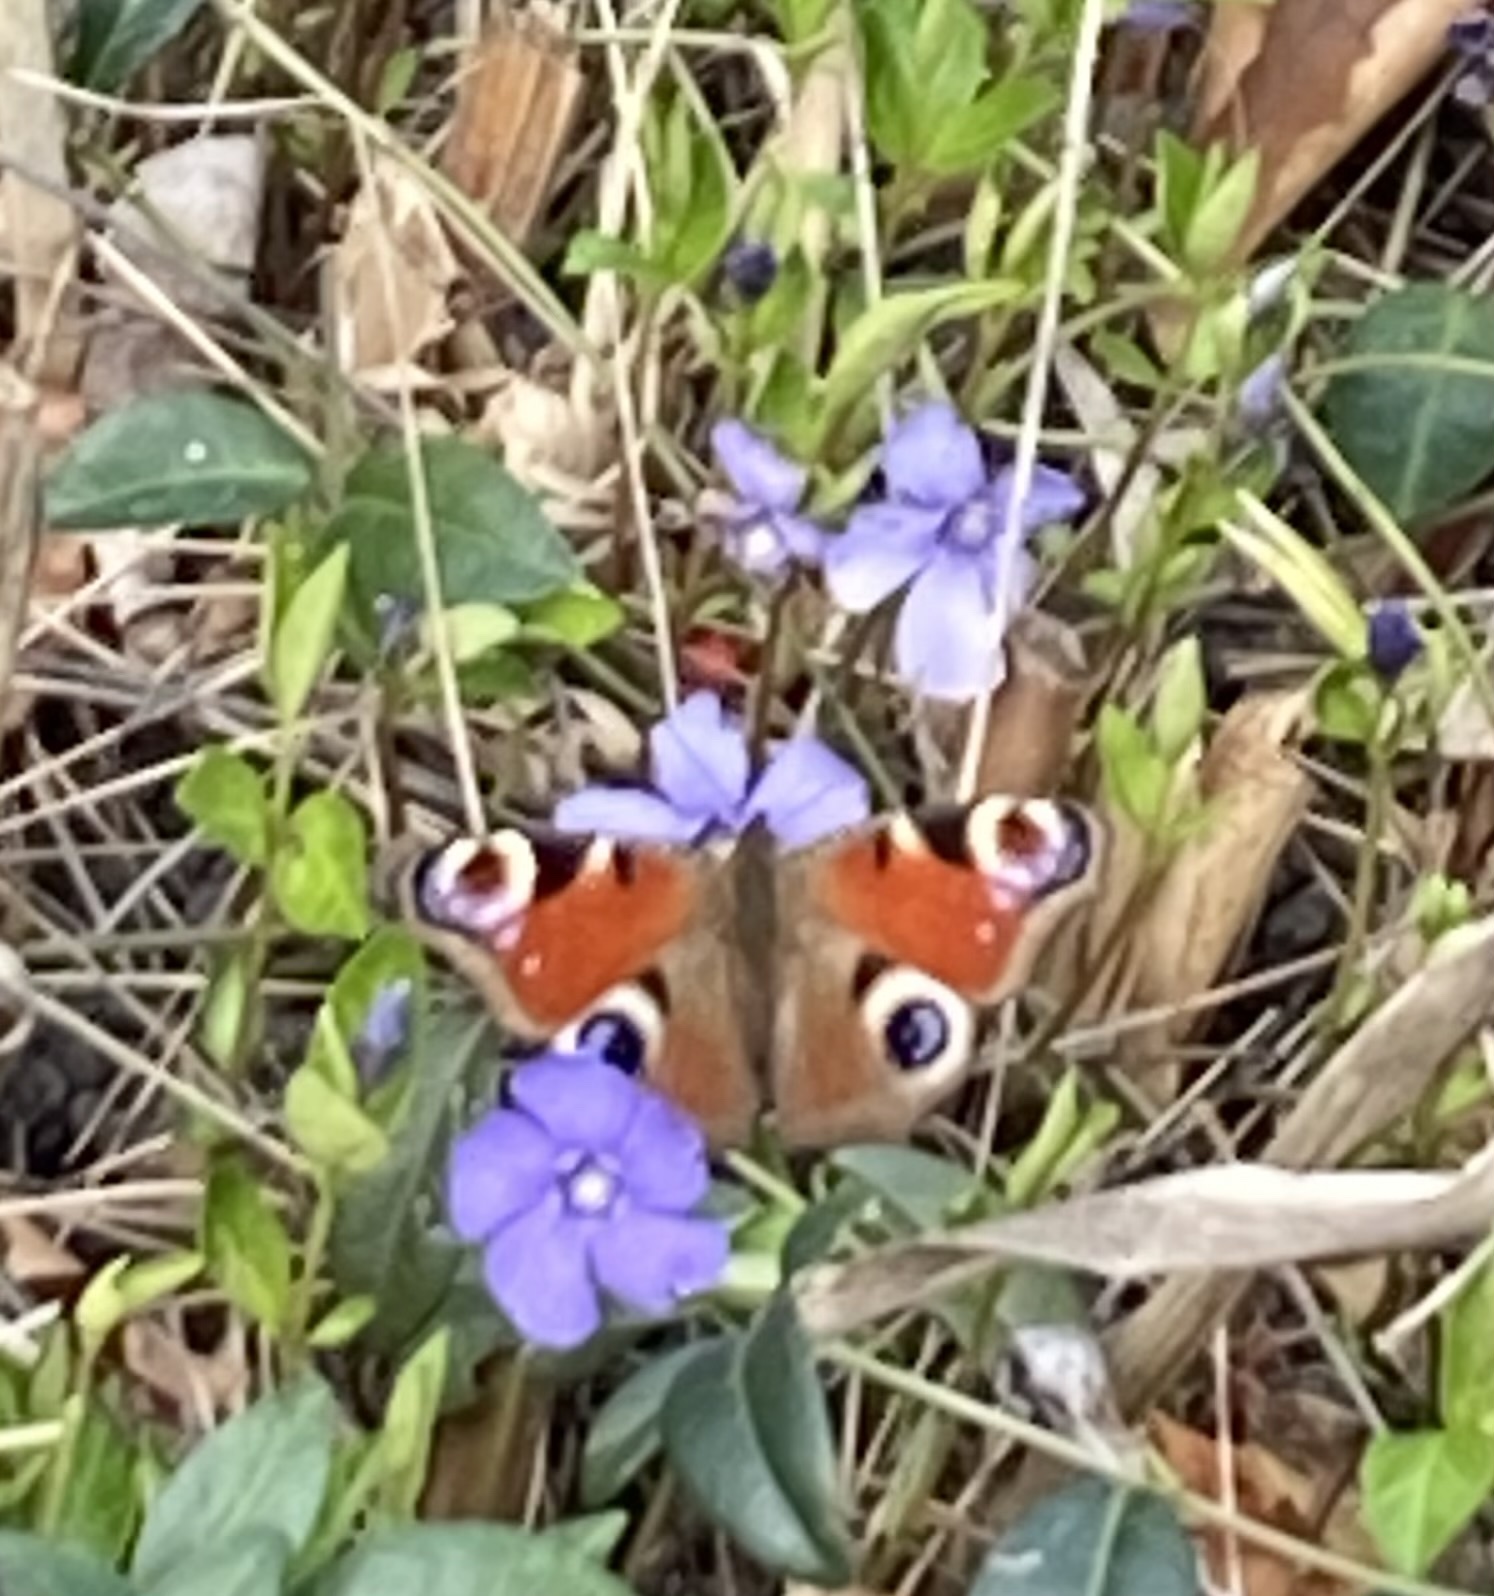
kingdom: Animalia
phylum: Arthropoda
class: Insecta
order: Lepidoptera
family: Nymphalidae
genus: Aglais
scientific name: Aglais io
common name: Peacock
